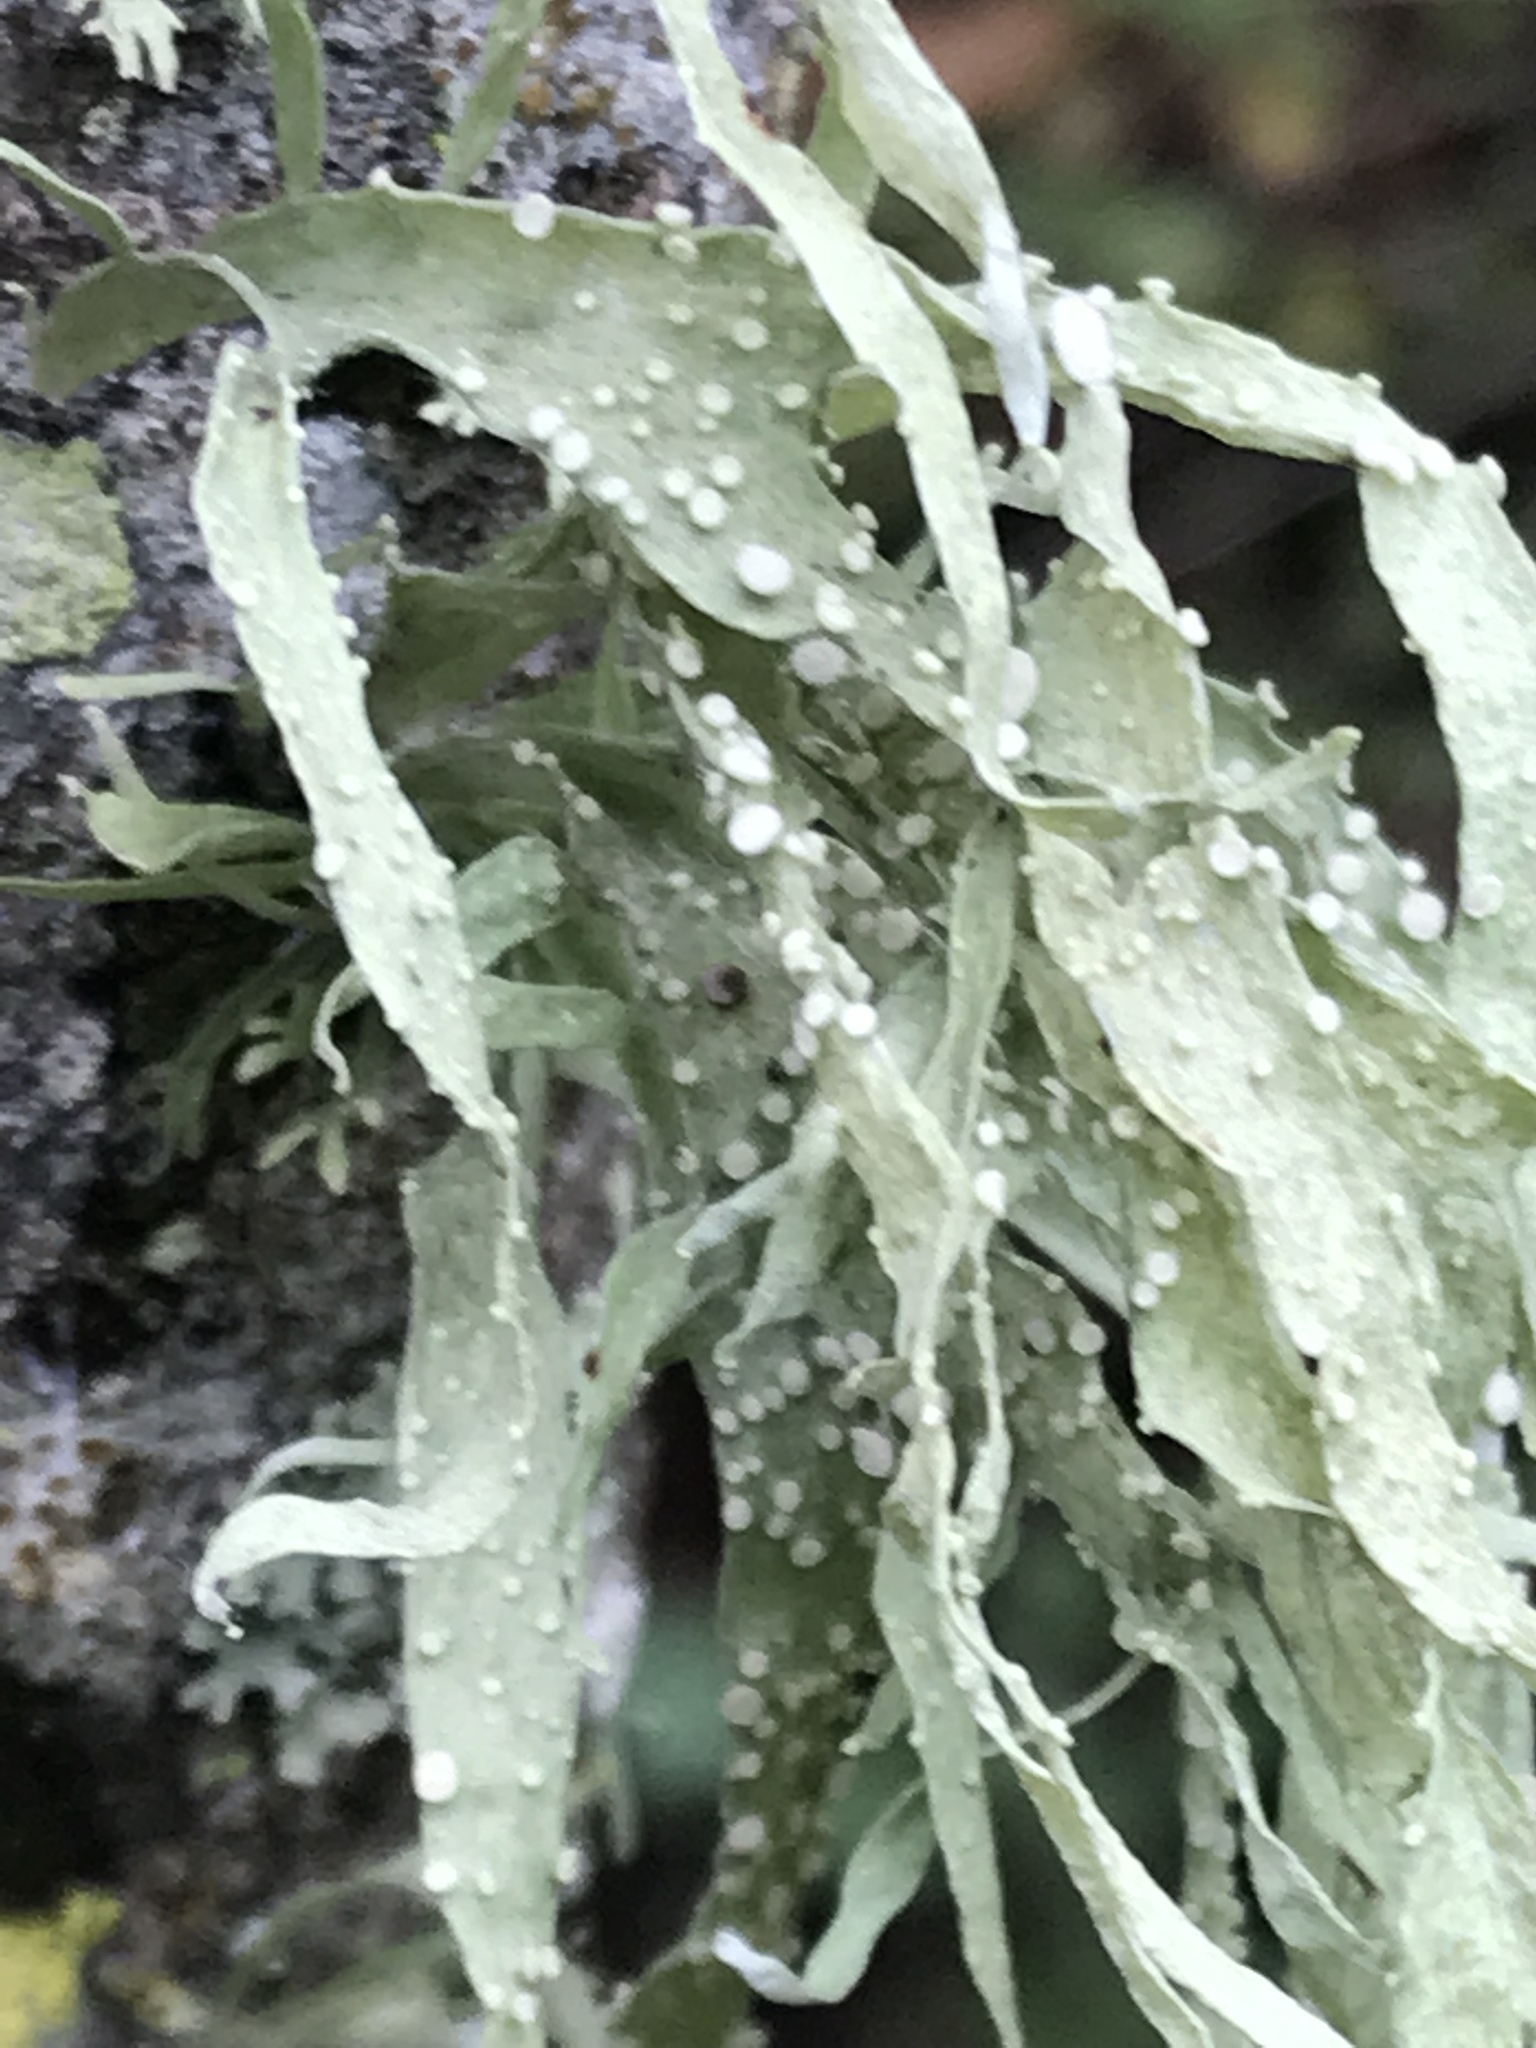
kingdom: Fungi
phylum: Ascomycota
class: Lecanoromycetes
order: Lecanorales
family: Ramalinaceae
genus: Ramalina
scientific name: Ramalina celastri
